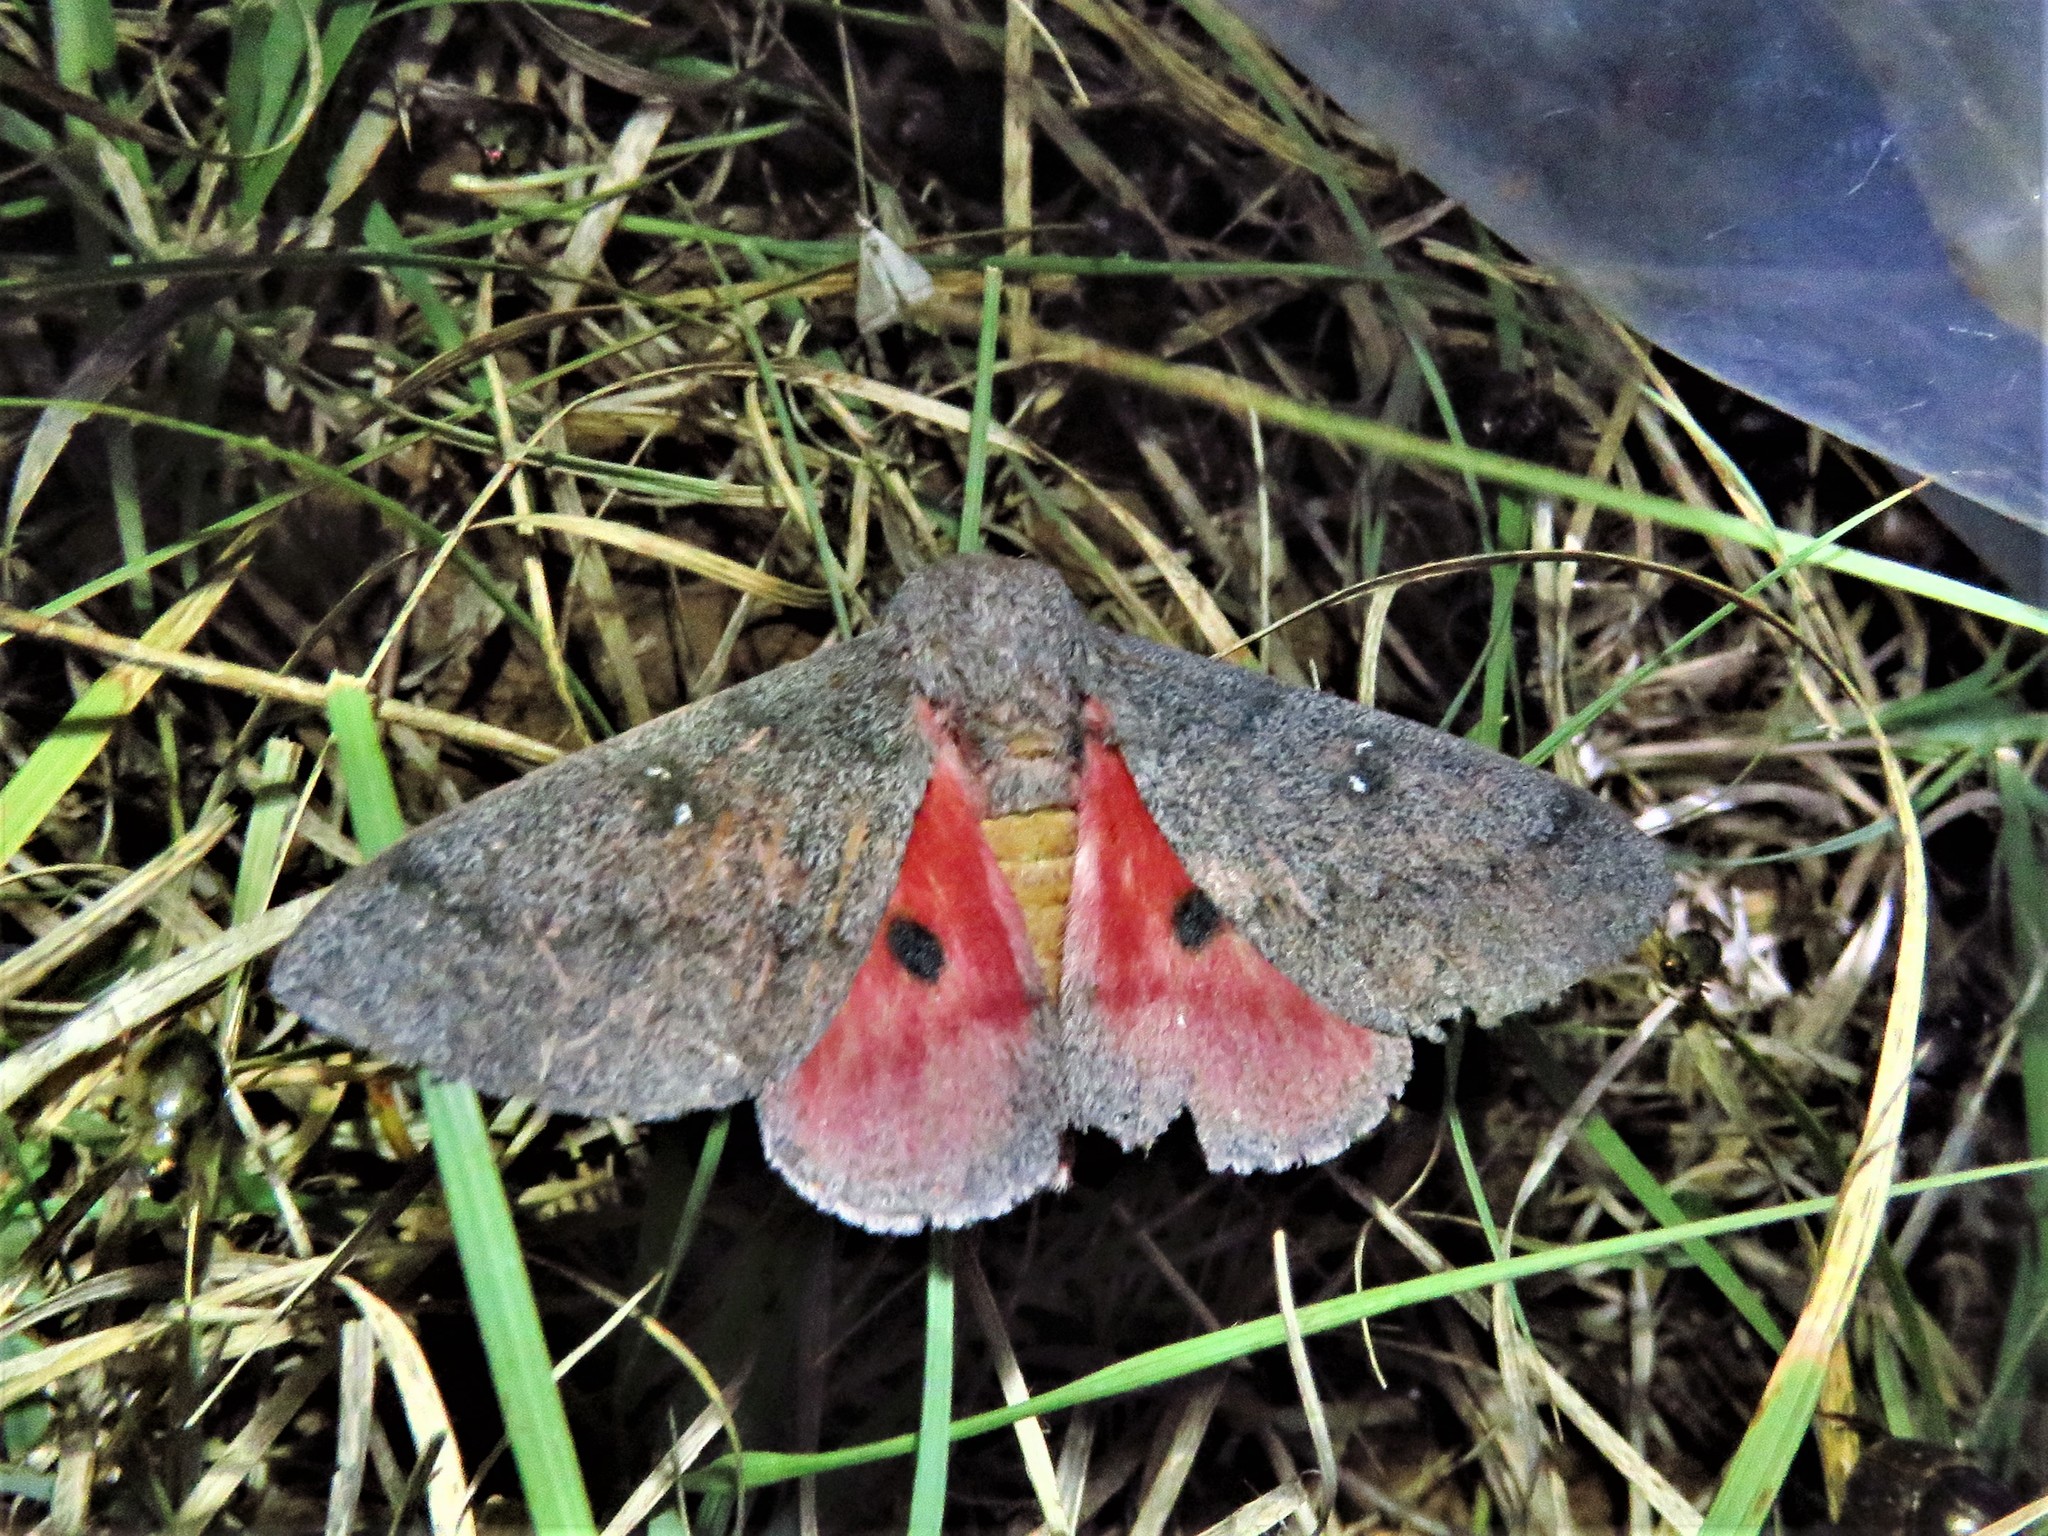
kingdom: Animalia
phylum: Arthropoda
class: Insecta
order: Lepidoptera
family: Saturniidae
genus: Syssphinx
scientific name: Syssphinx hubbardi
